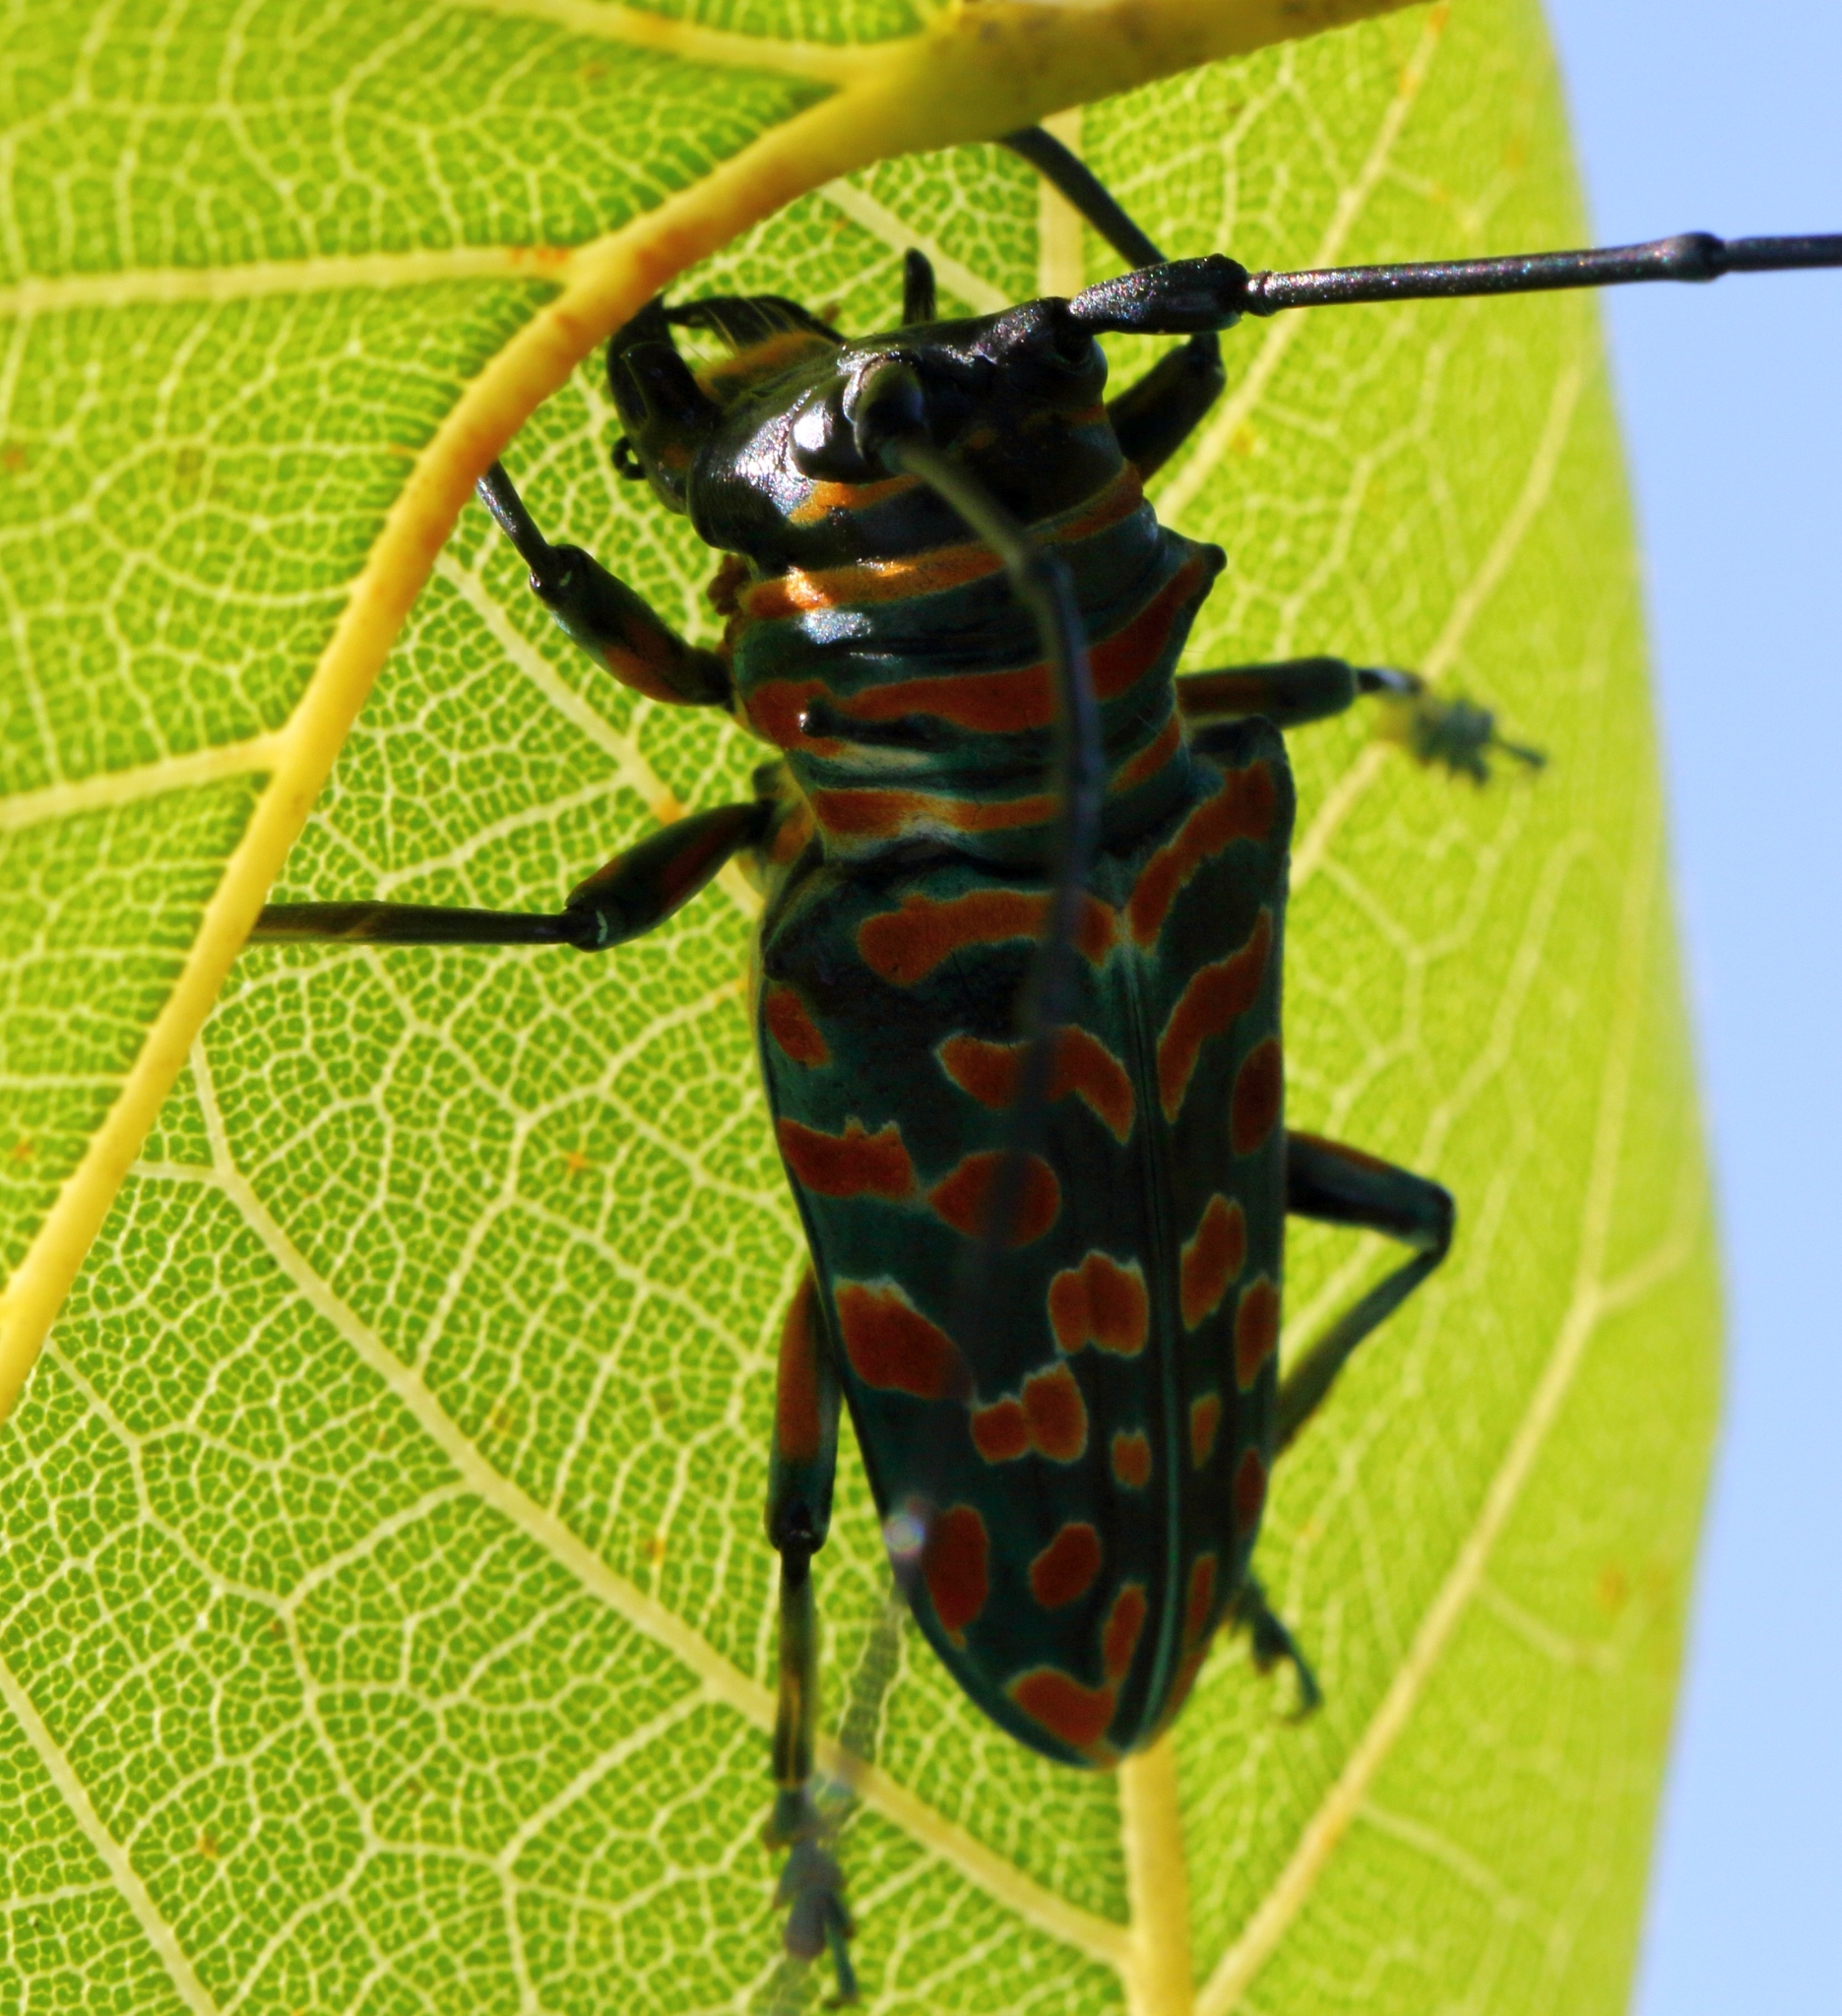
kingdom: Animalia
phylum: Arthropoda
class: Insecta
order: Coleoptera
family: Cerambycidae
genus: Sternotomis
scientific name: Sternotomis bohemani
